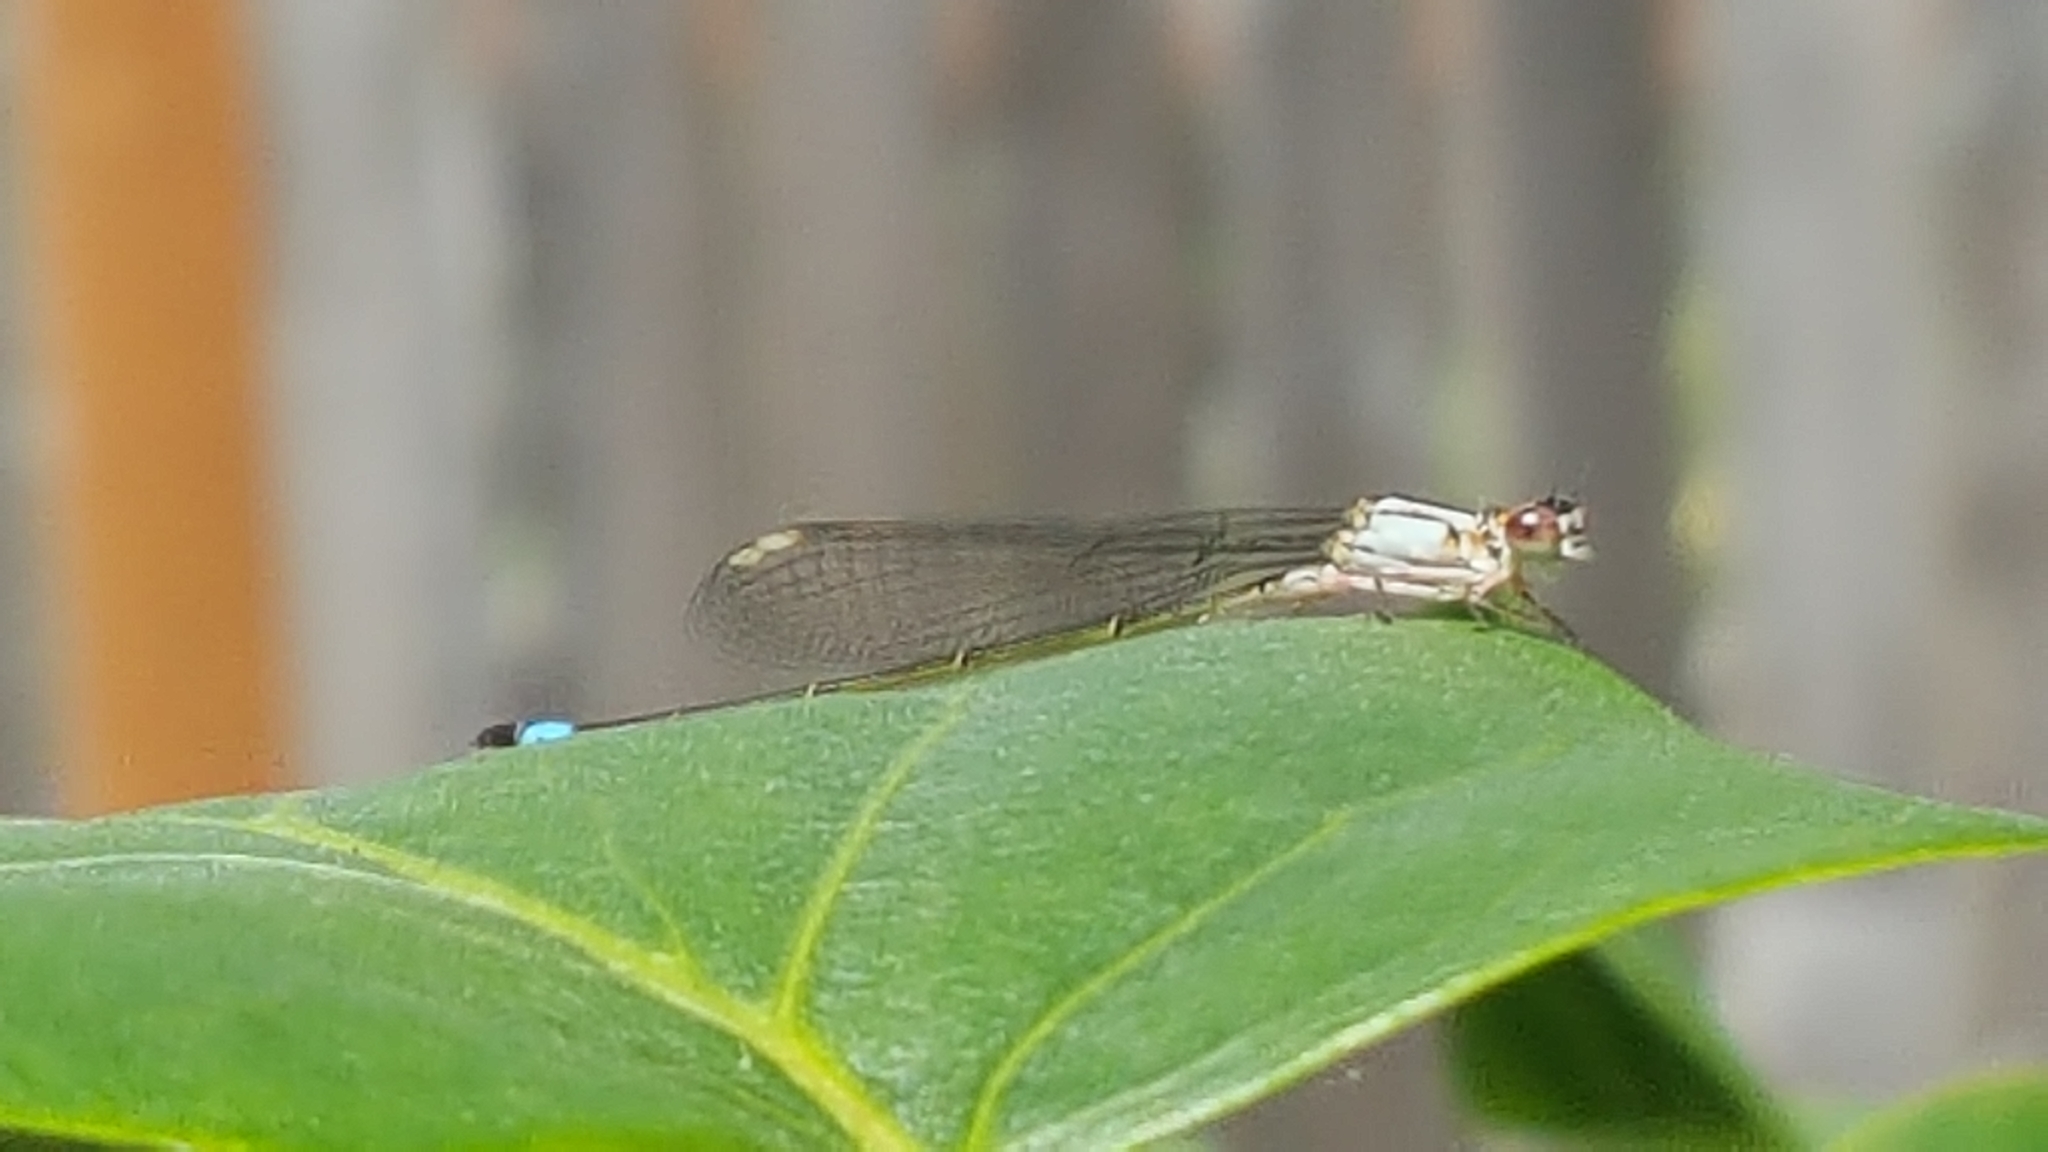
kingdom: Animalia
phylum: Arthropoda
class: Insecta
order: Odonata
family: Coenagrionidae
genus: Ischnura
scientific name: Ischnura cervula
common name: Pacific forktail
